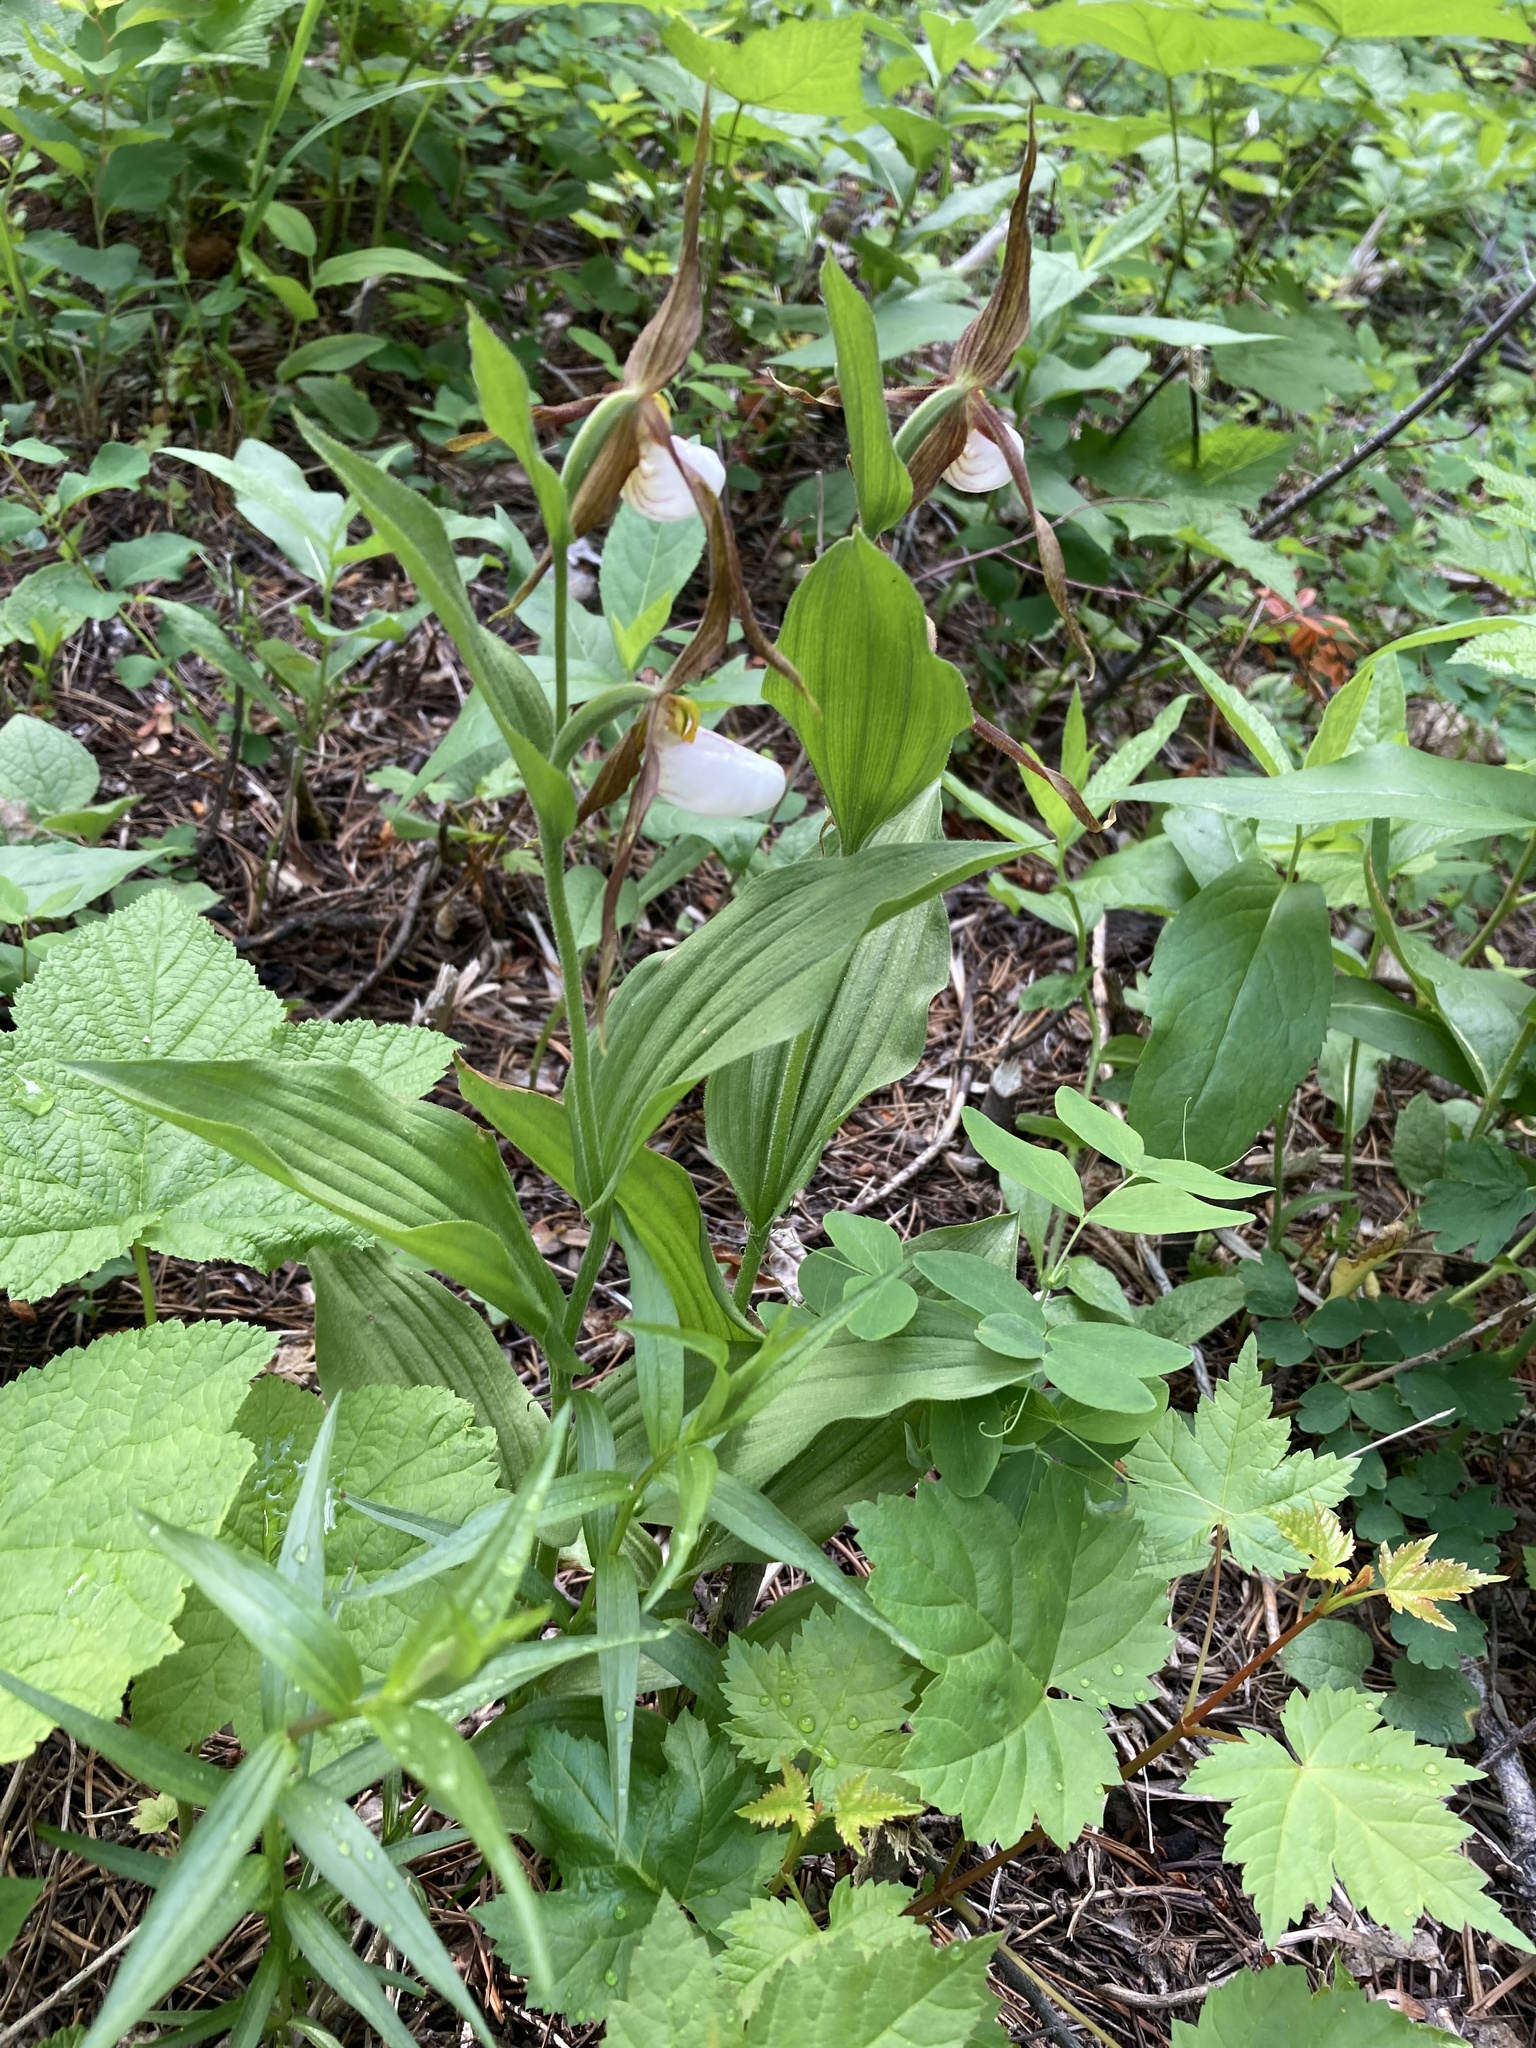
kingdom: Plantae
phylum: Tracheophyta
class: Liliopsida
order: Asparagales
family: Orchidaceae
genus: Cypripedium
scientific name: Cypripedium montanum
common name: Mountain lady's-slipper
